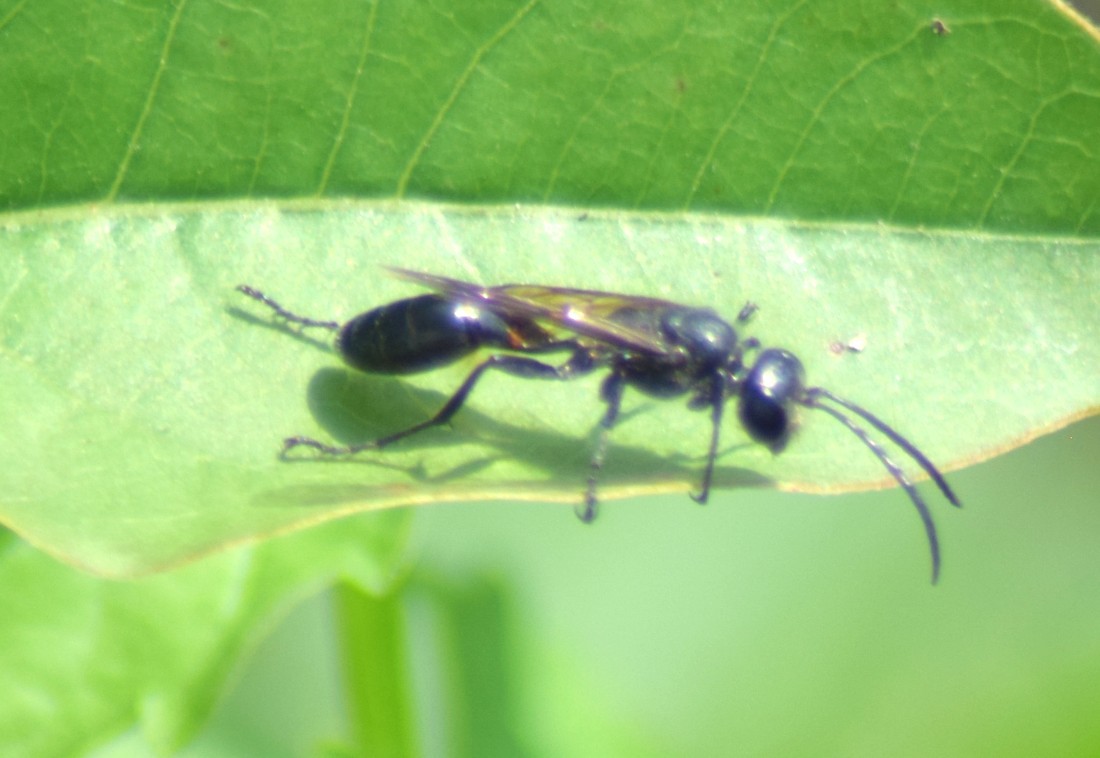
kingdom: Animalia
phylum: Arthropoda
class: Insecta
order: Hymenoptera
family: Sphecidae
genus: Isodontia
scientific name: Isodontia mexicana
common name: Mud dauber
